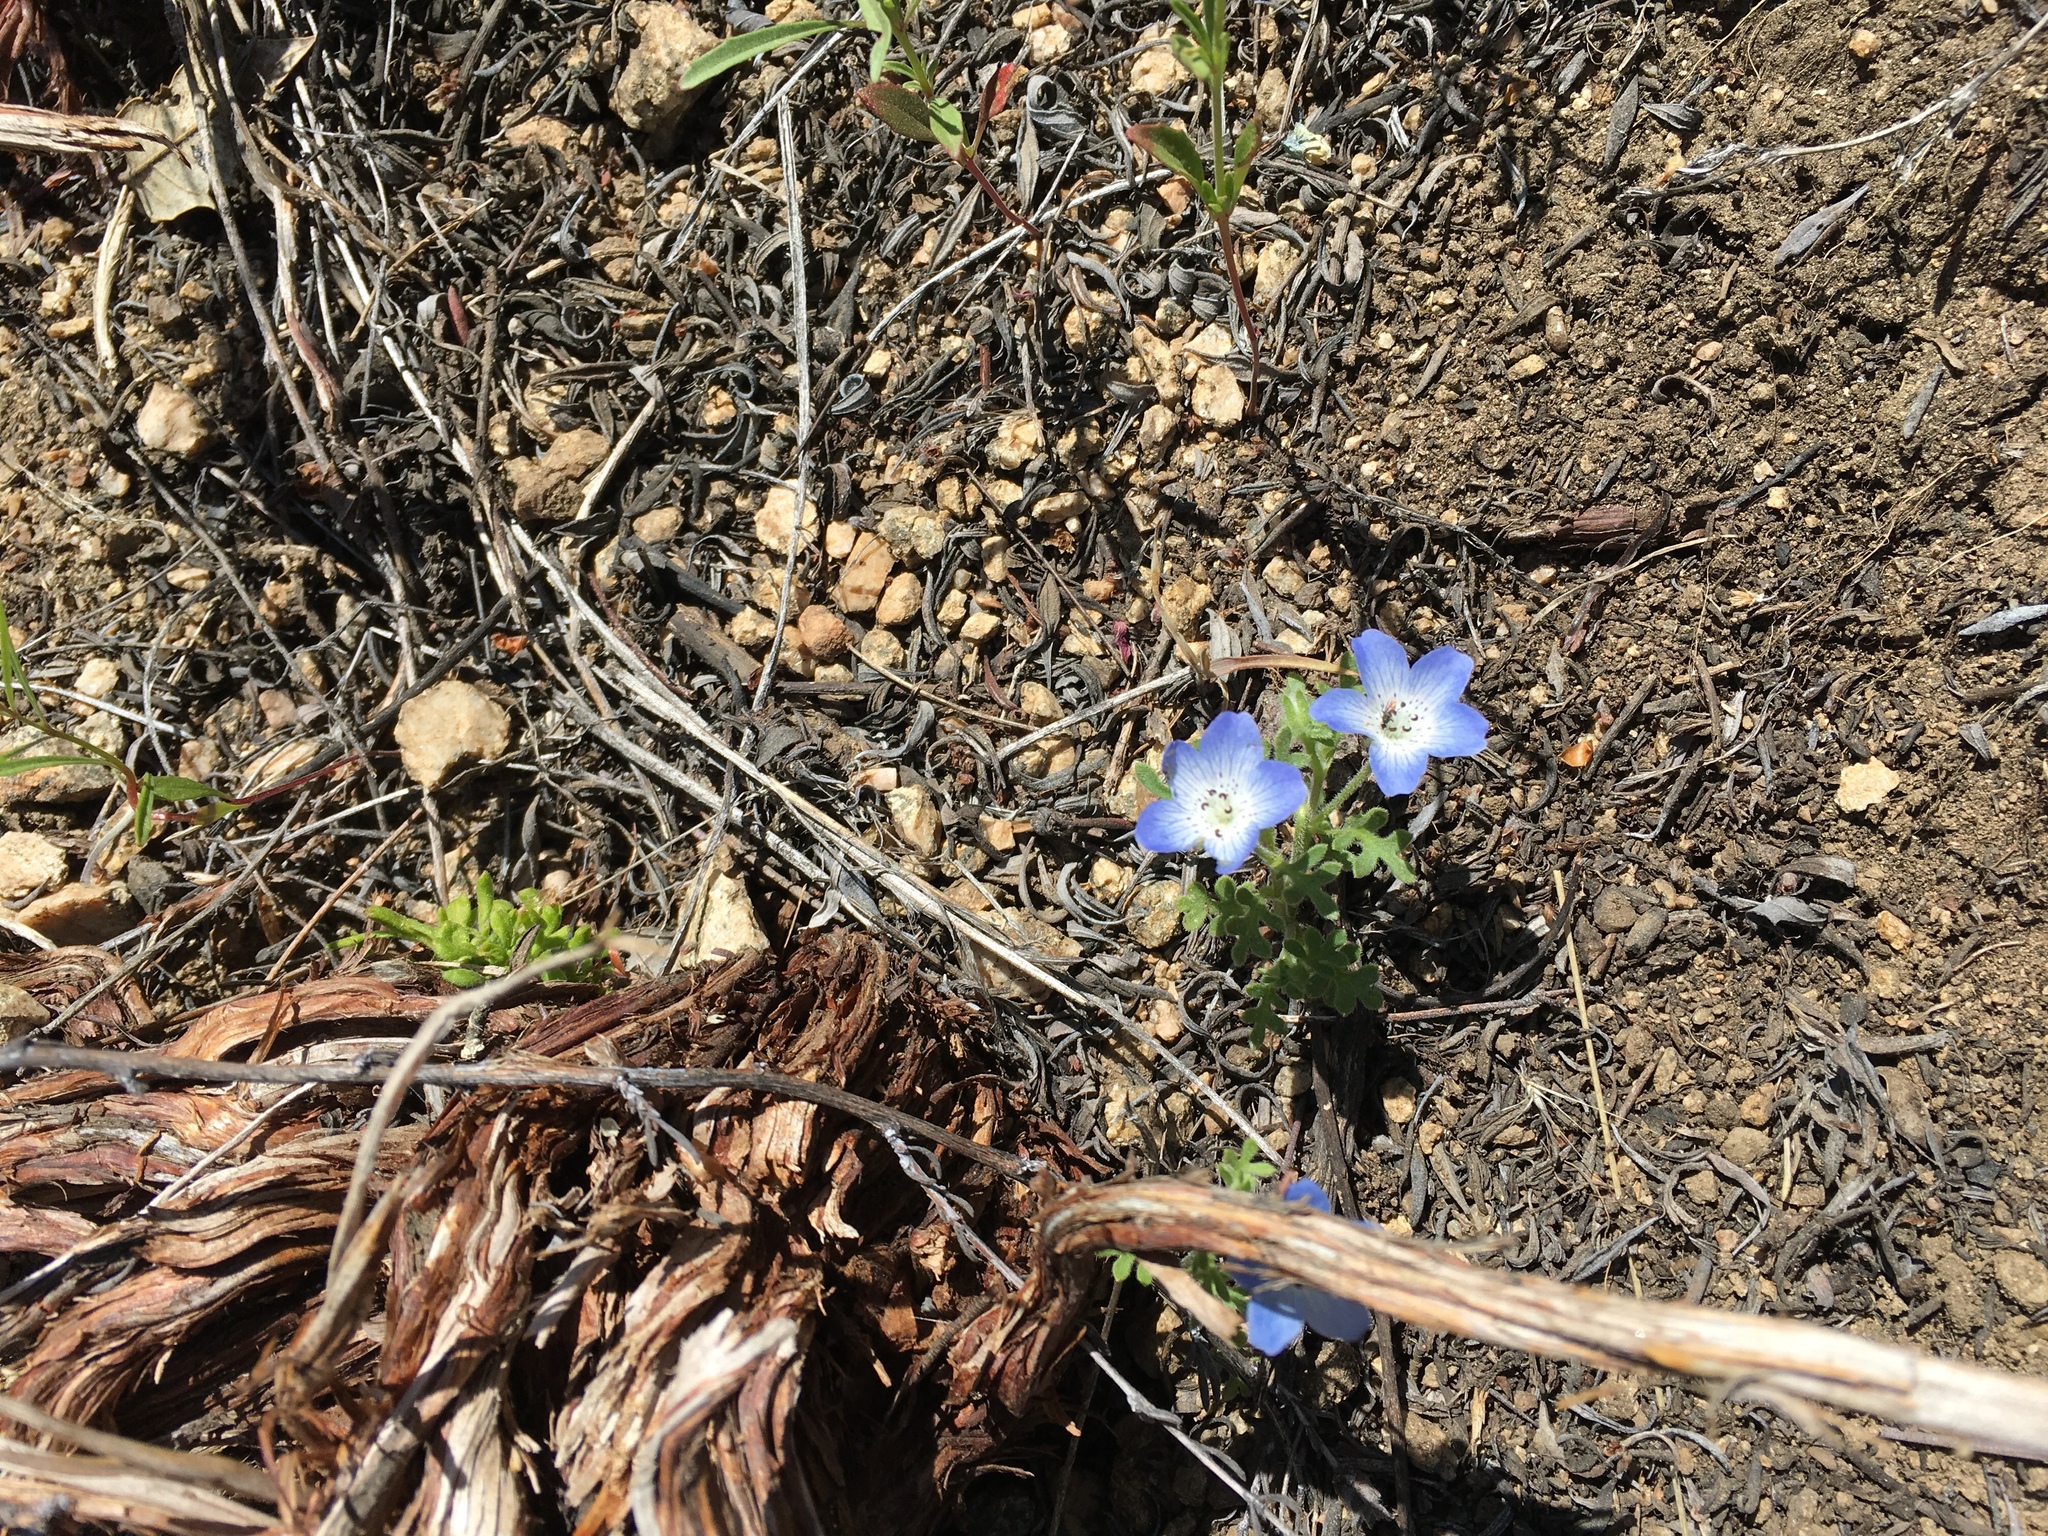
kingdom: Plantae
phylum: Tracheophyta
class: Magnoliopsida
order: Boraginales
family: Hydrophyllaceae
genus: Nemophila
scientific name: Nemophila menziesii
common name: Baby's-blue-eyes
